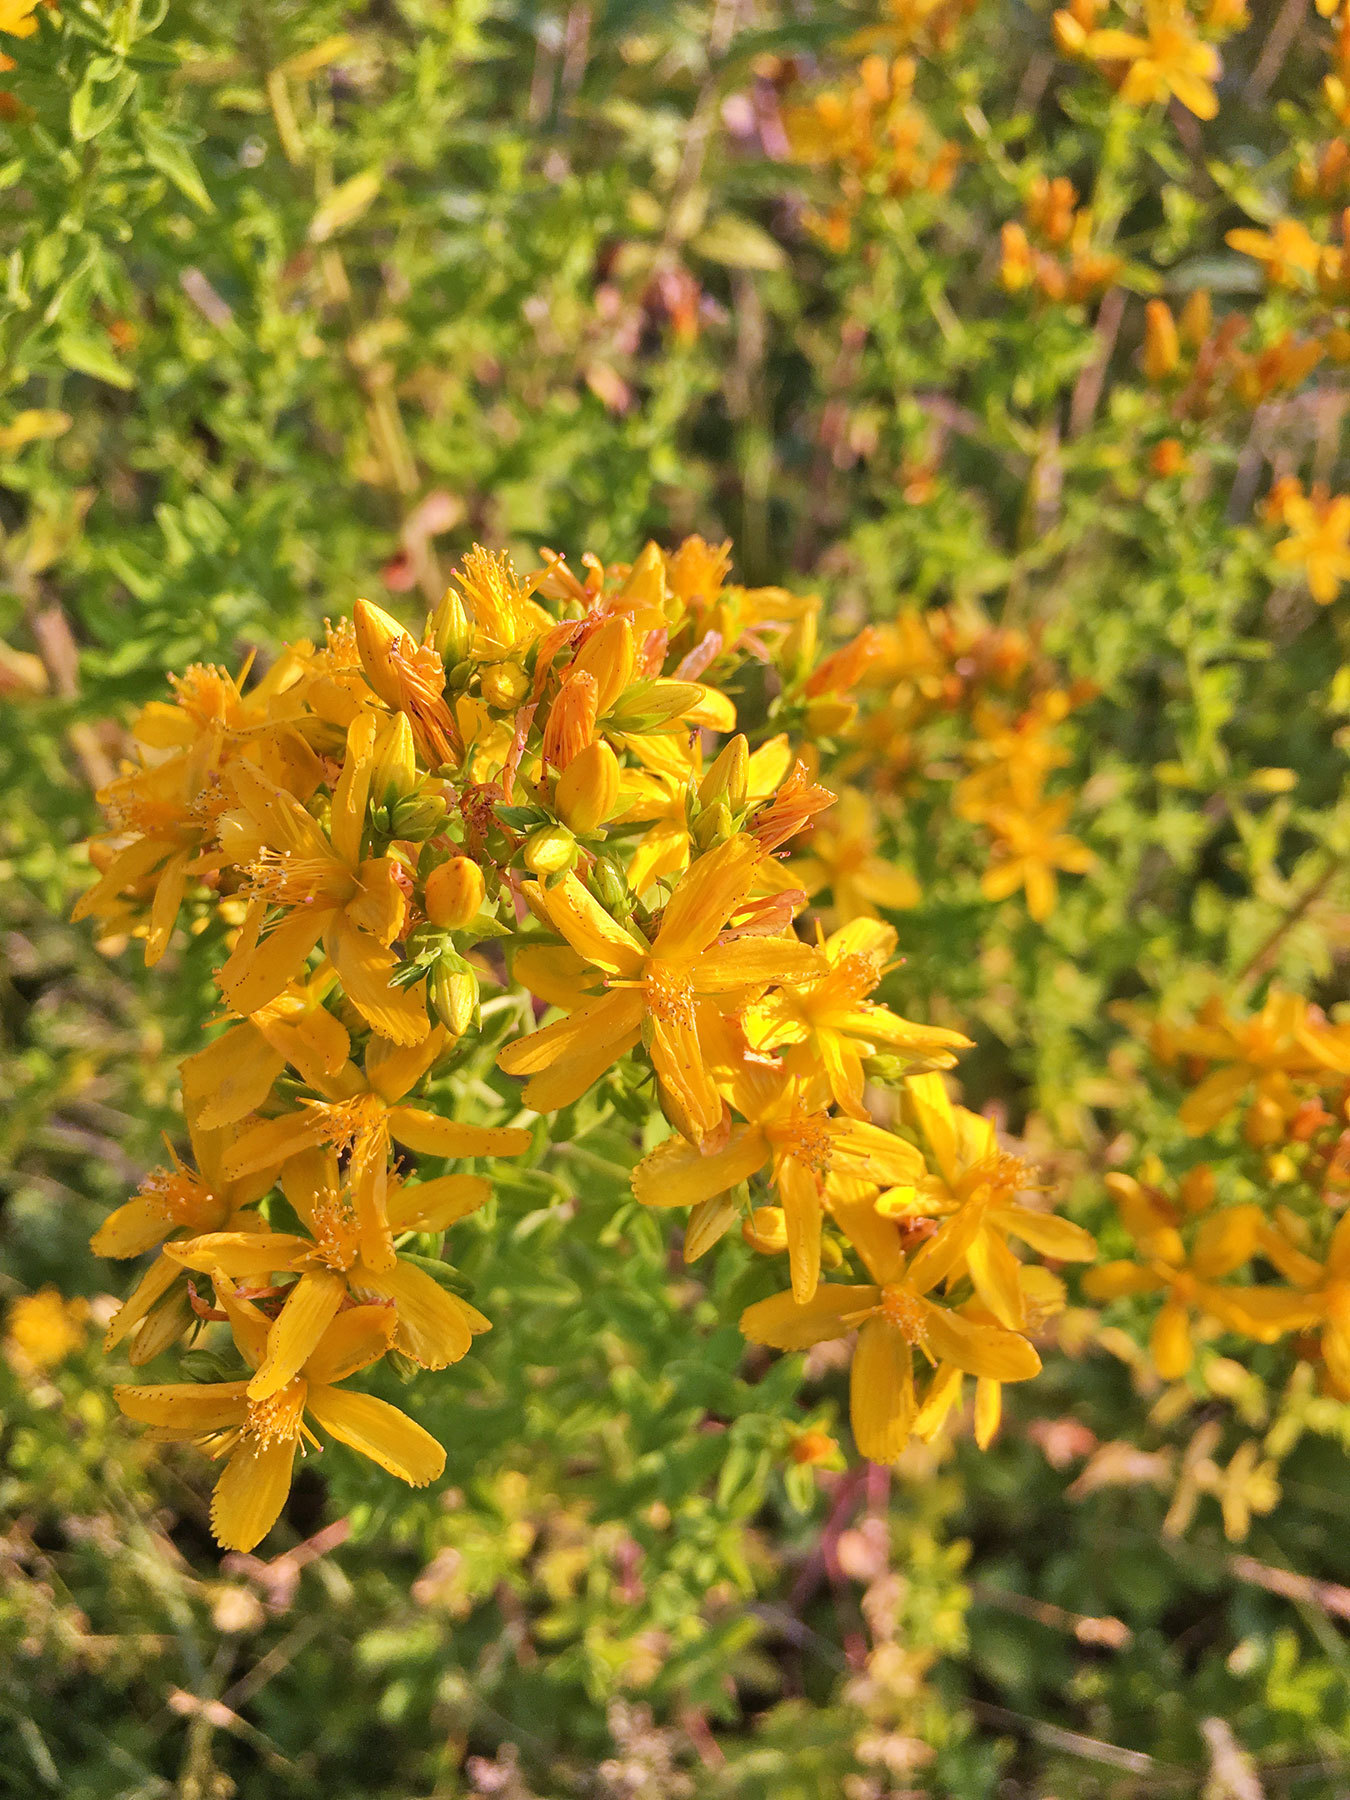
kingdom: Plantae
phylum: Tracheophyta
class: Magnoliopsida
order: Malpighiales
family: Hypericaceae
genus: Hypericum
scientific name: Hypericum perforatum
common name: Common st. johnswort
